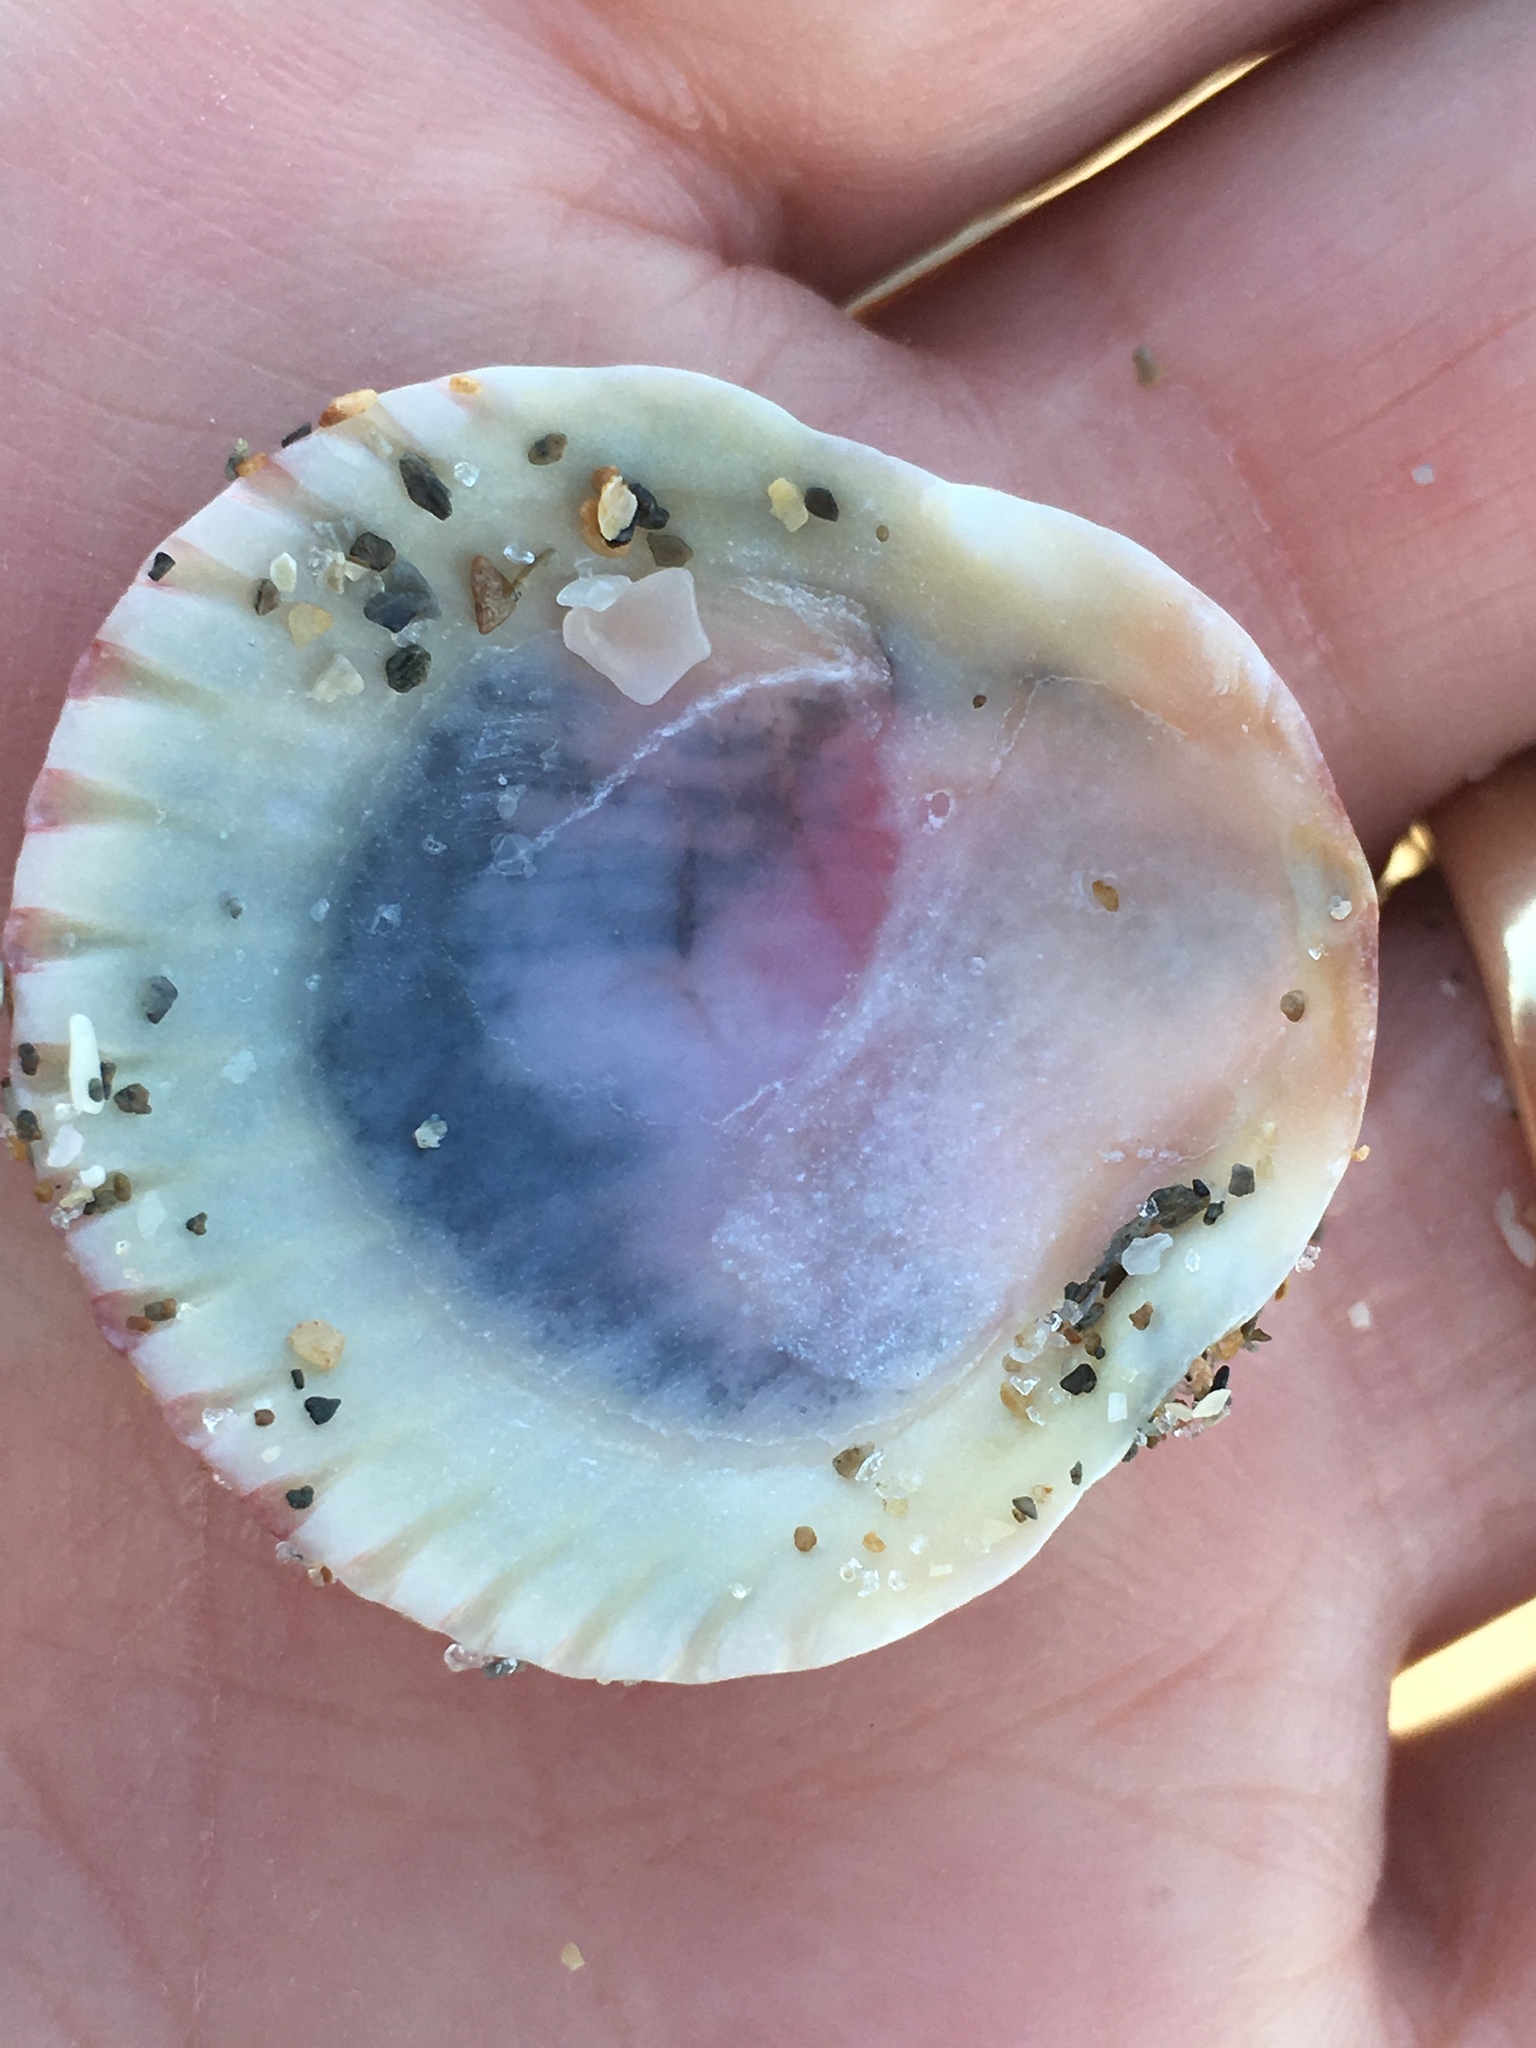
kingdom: Animalia
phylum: Mollusca
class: Bivalvia
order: Pectinida
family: Pectinidae
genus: Argopecten
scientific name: Argopecten gibbus
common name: Atlantic calico scallop
